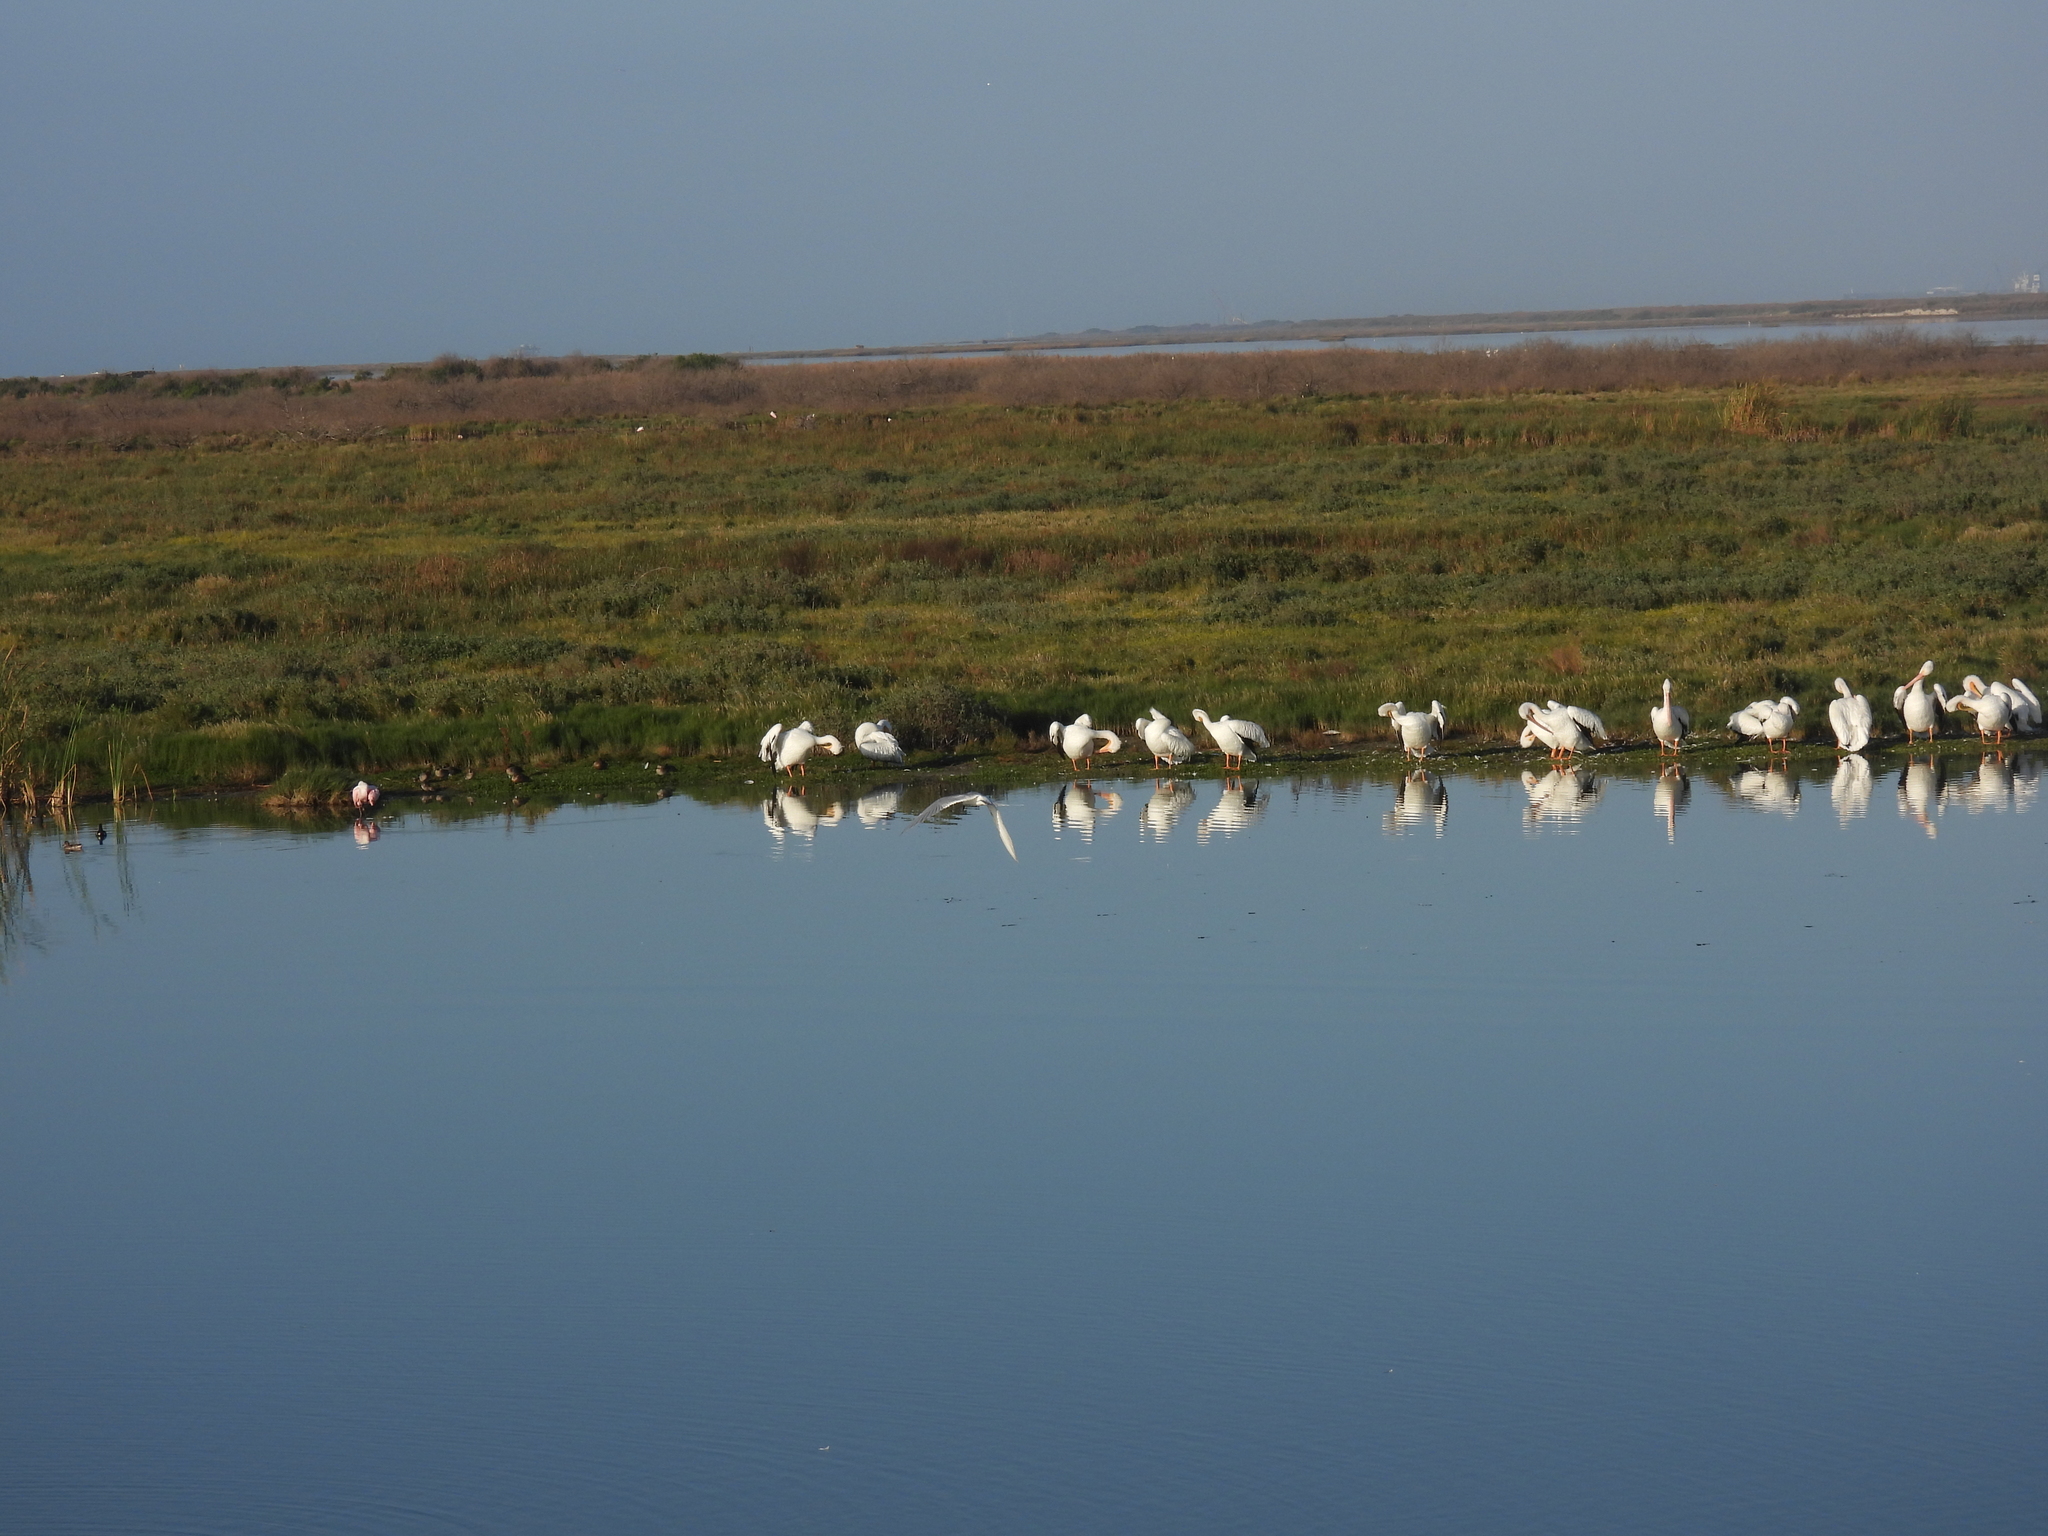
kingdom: Animalia
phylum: Chordata
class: Aves
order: Pelecaniformes
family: Pelecanidae
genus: Pelecanus
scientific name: Pelecanus erythrorhynchos
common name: American white pelican
